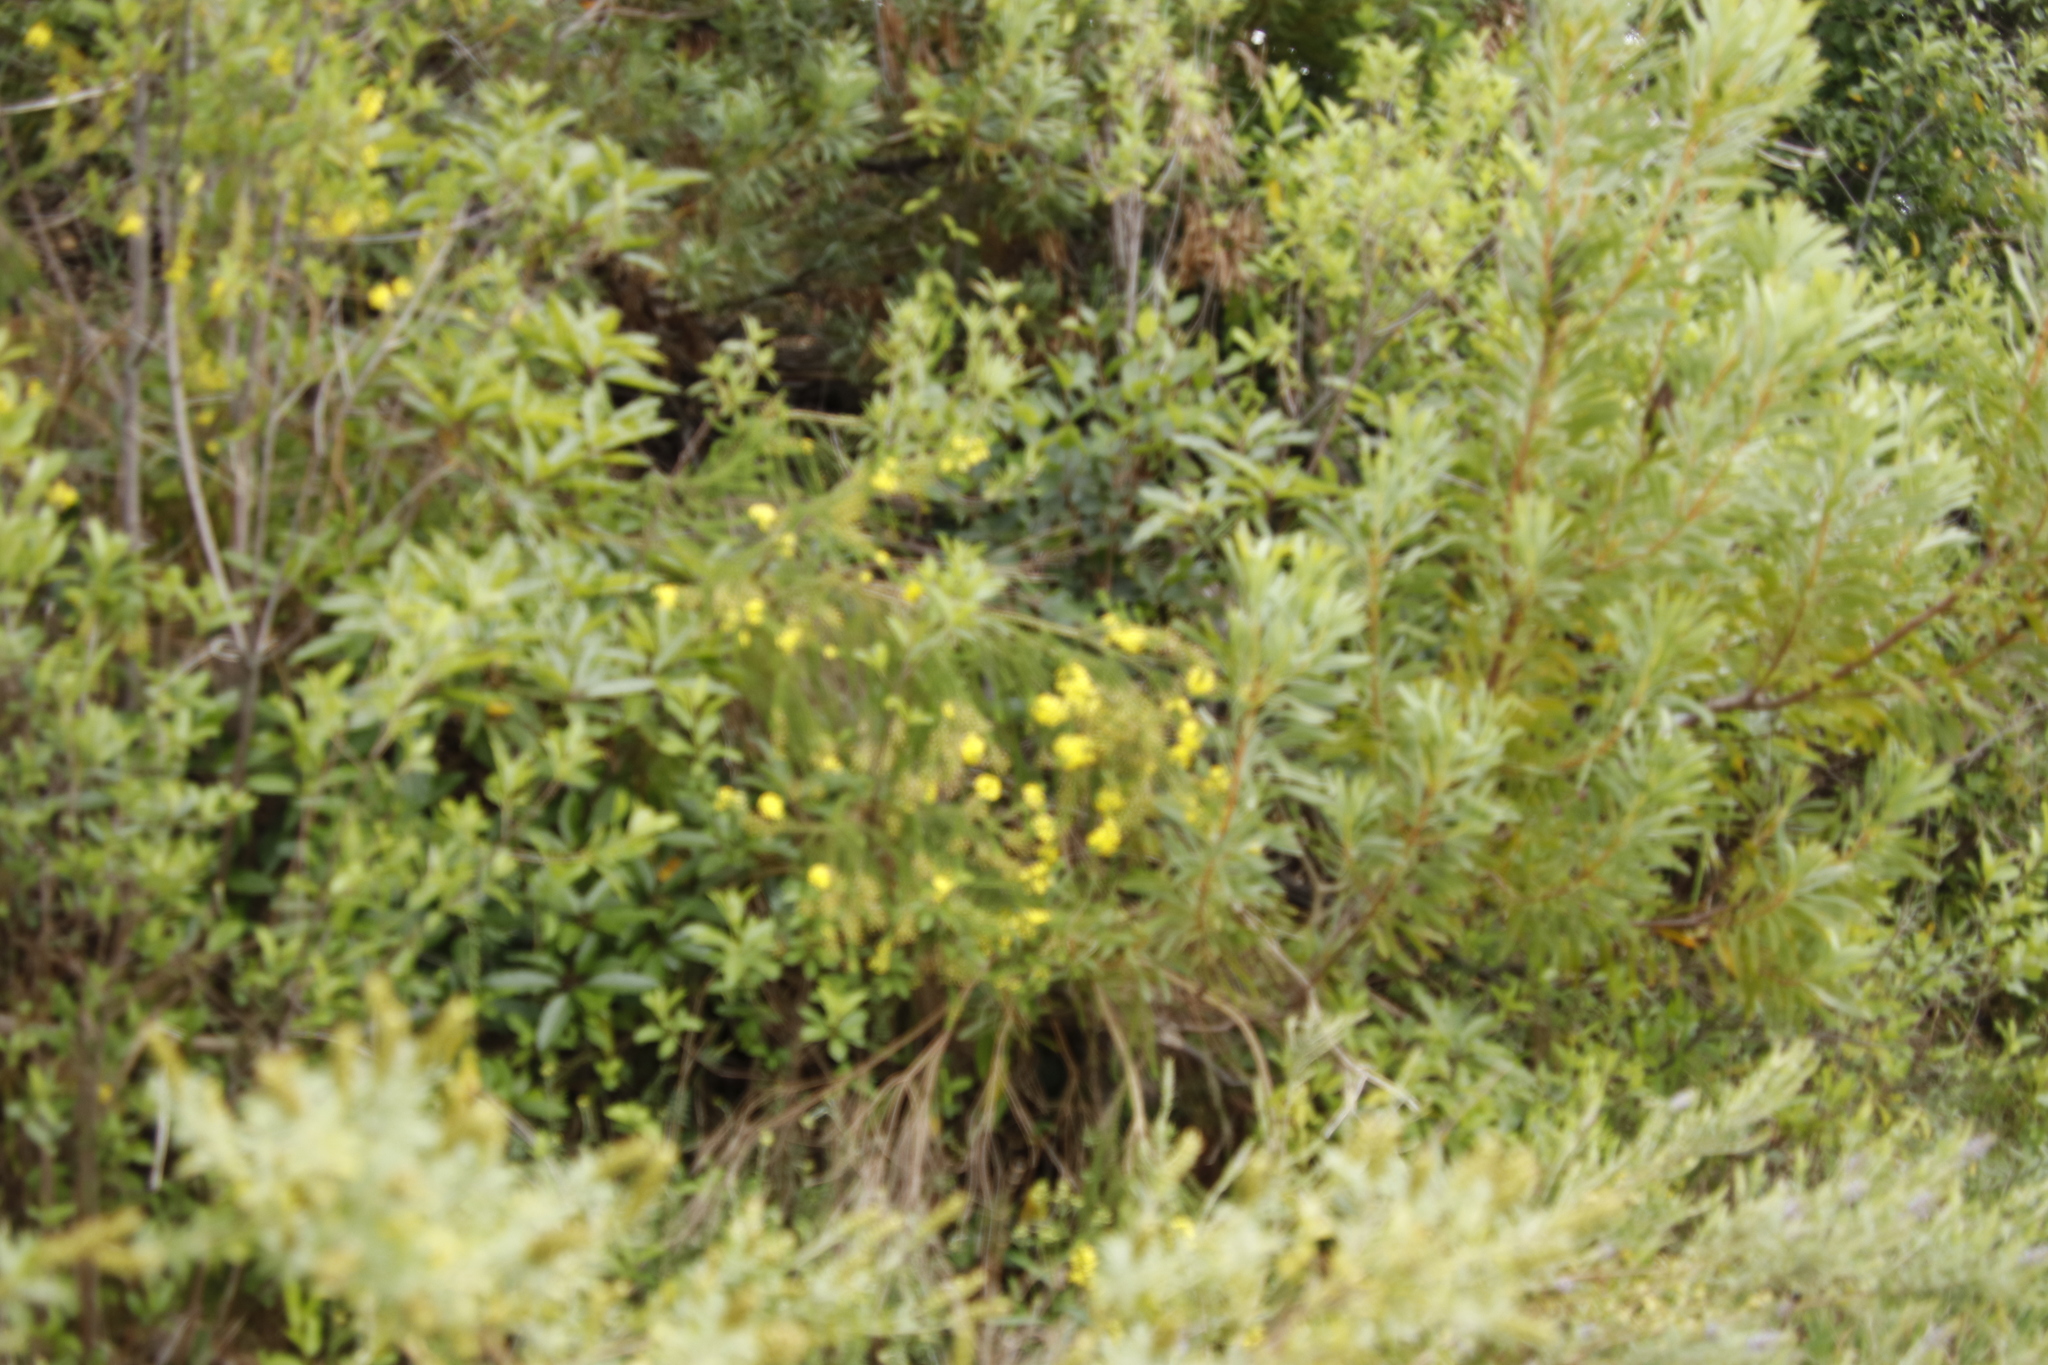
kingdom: Plantae
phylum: Tracheophyta
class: Magnoliopsida
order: Fabales
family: Fabaceae
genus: Psoralea
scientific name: Psoralea spicata
